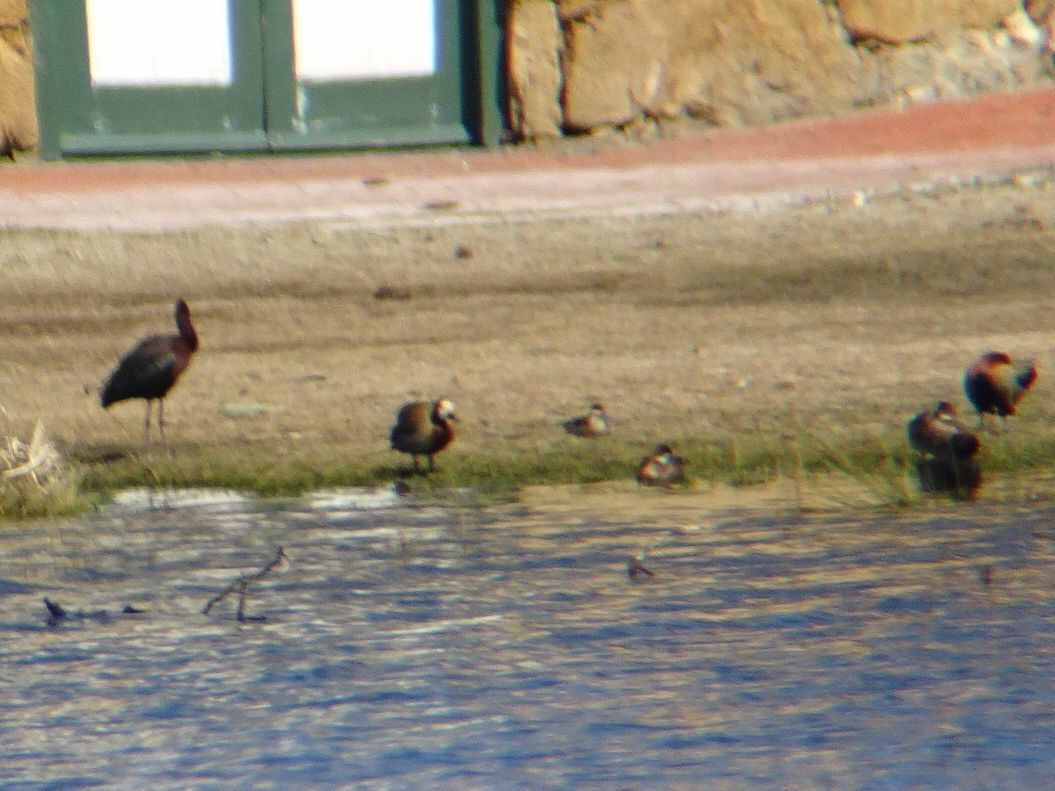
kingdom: Animalia
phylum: Chordata
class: Aves
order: Anseriformes
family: Anatidae
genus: Spatula
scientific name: Spatula hottentota
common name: Blue-billed teal
